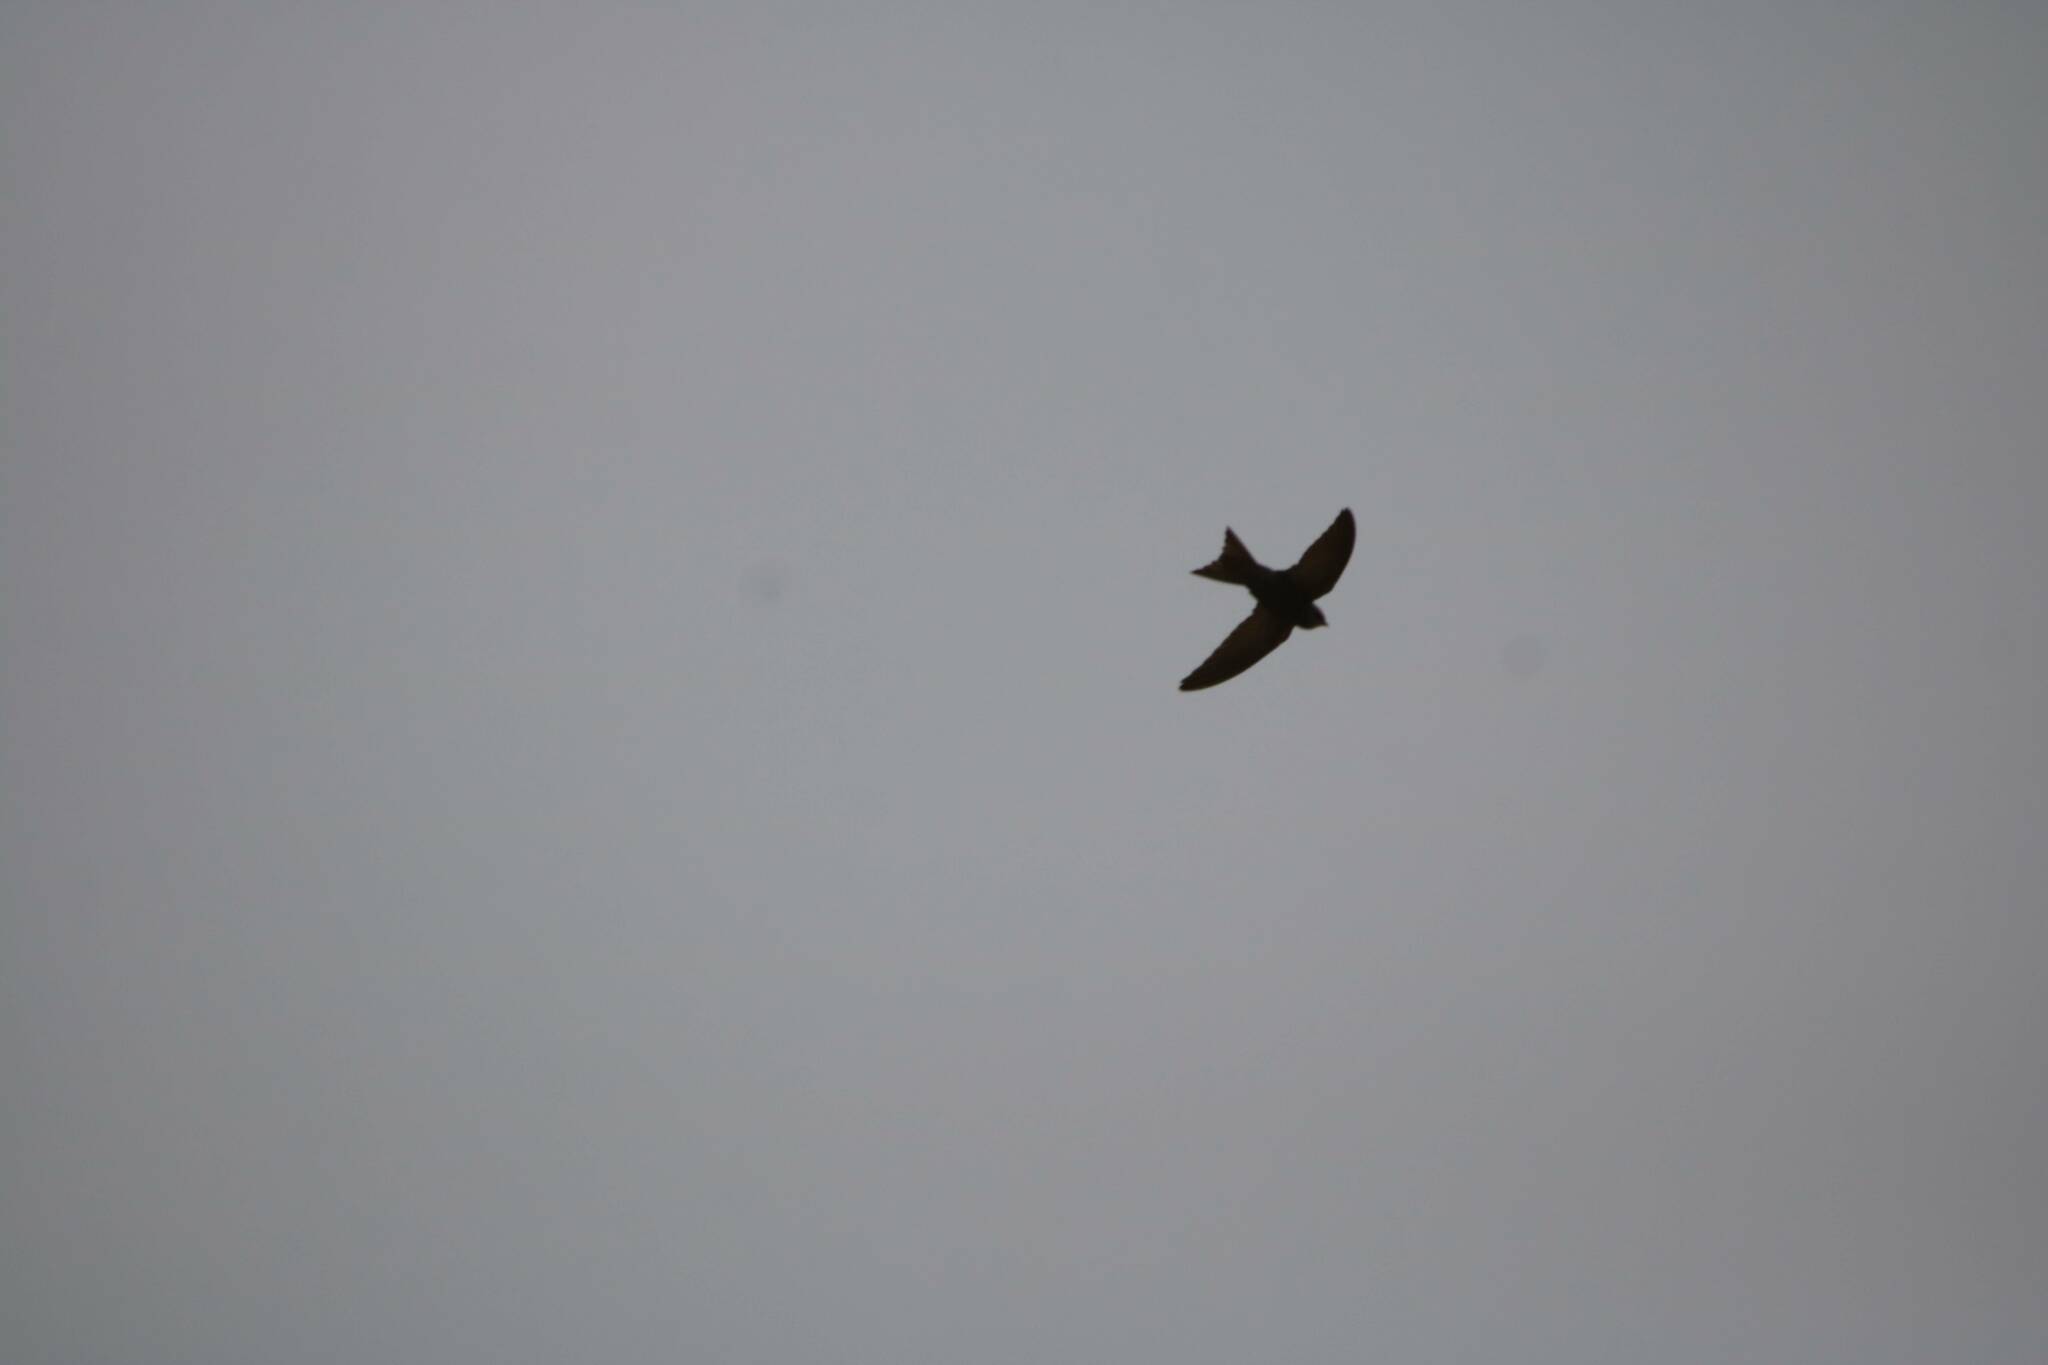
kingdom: Animalia
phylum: Chordata
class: Aves
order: Apodiformes
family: Apodidae
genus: Apus
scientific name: Apus pallidus
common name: Pallid swift
